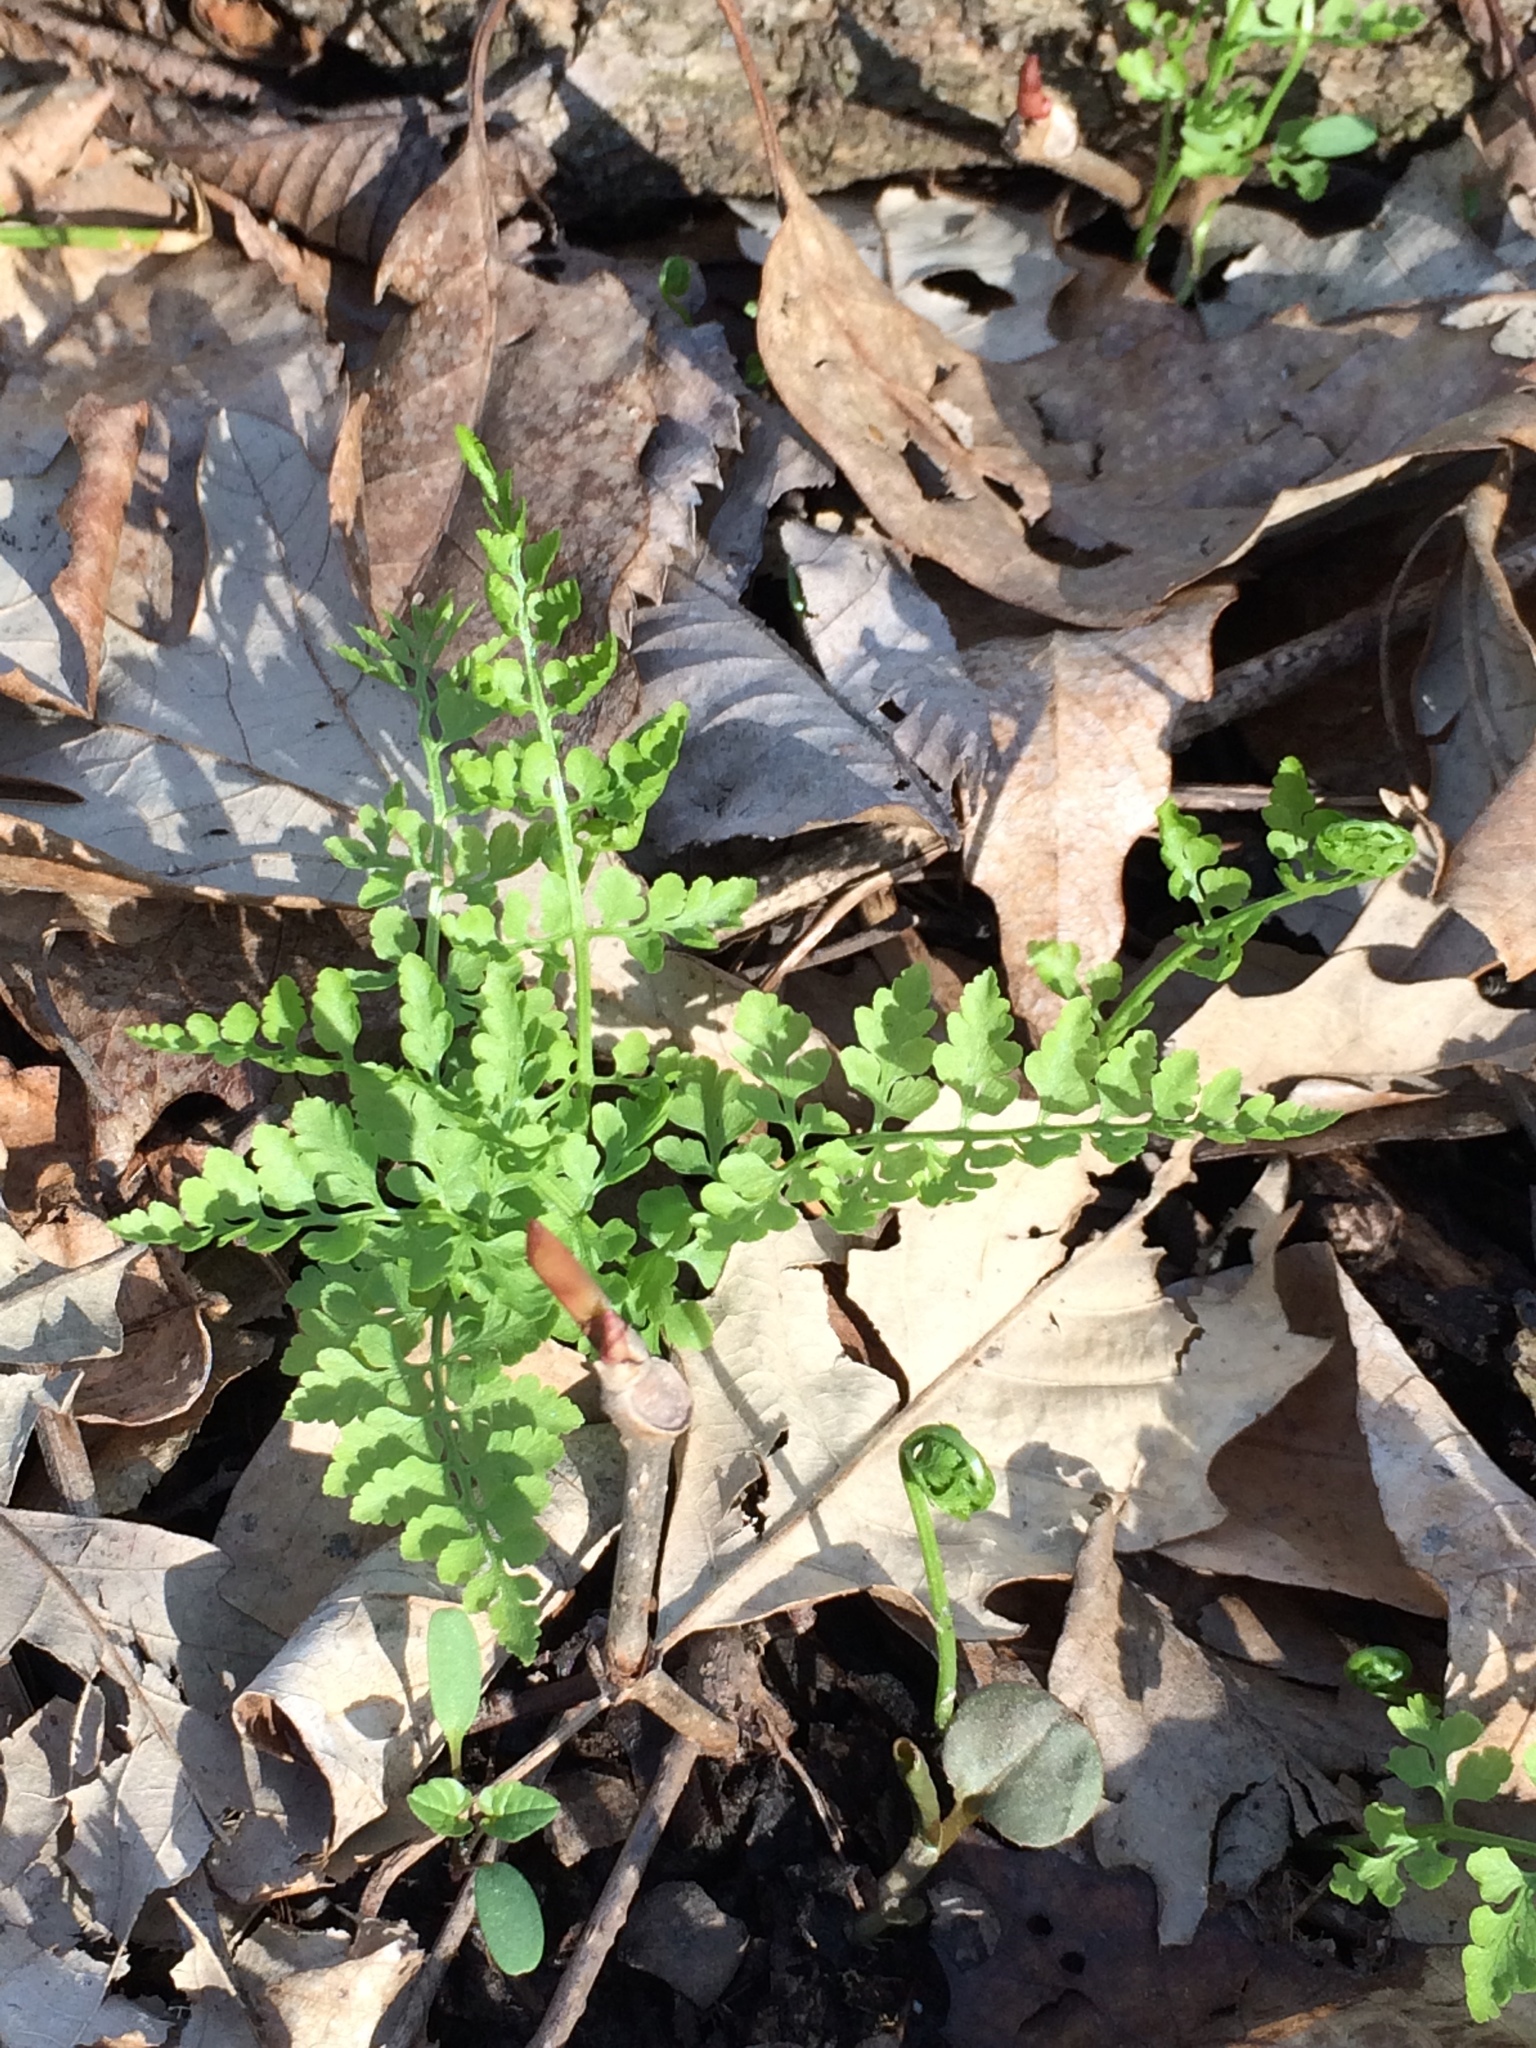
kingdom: Plantae
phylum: Tracheophyta
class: Polypodiopsida
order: Polypodiales
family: Cystopteridaceae
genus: Cystopteris
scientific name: Cystopteris protrusa
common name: Lowland brittle fern
